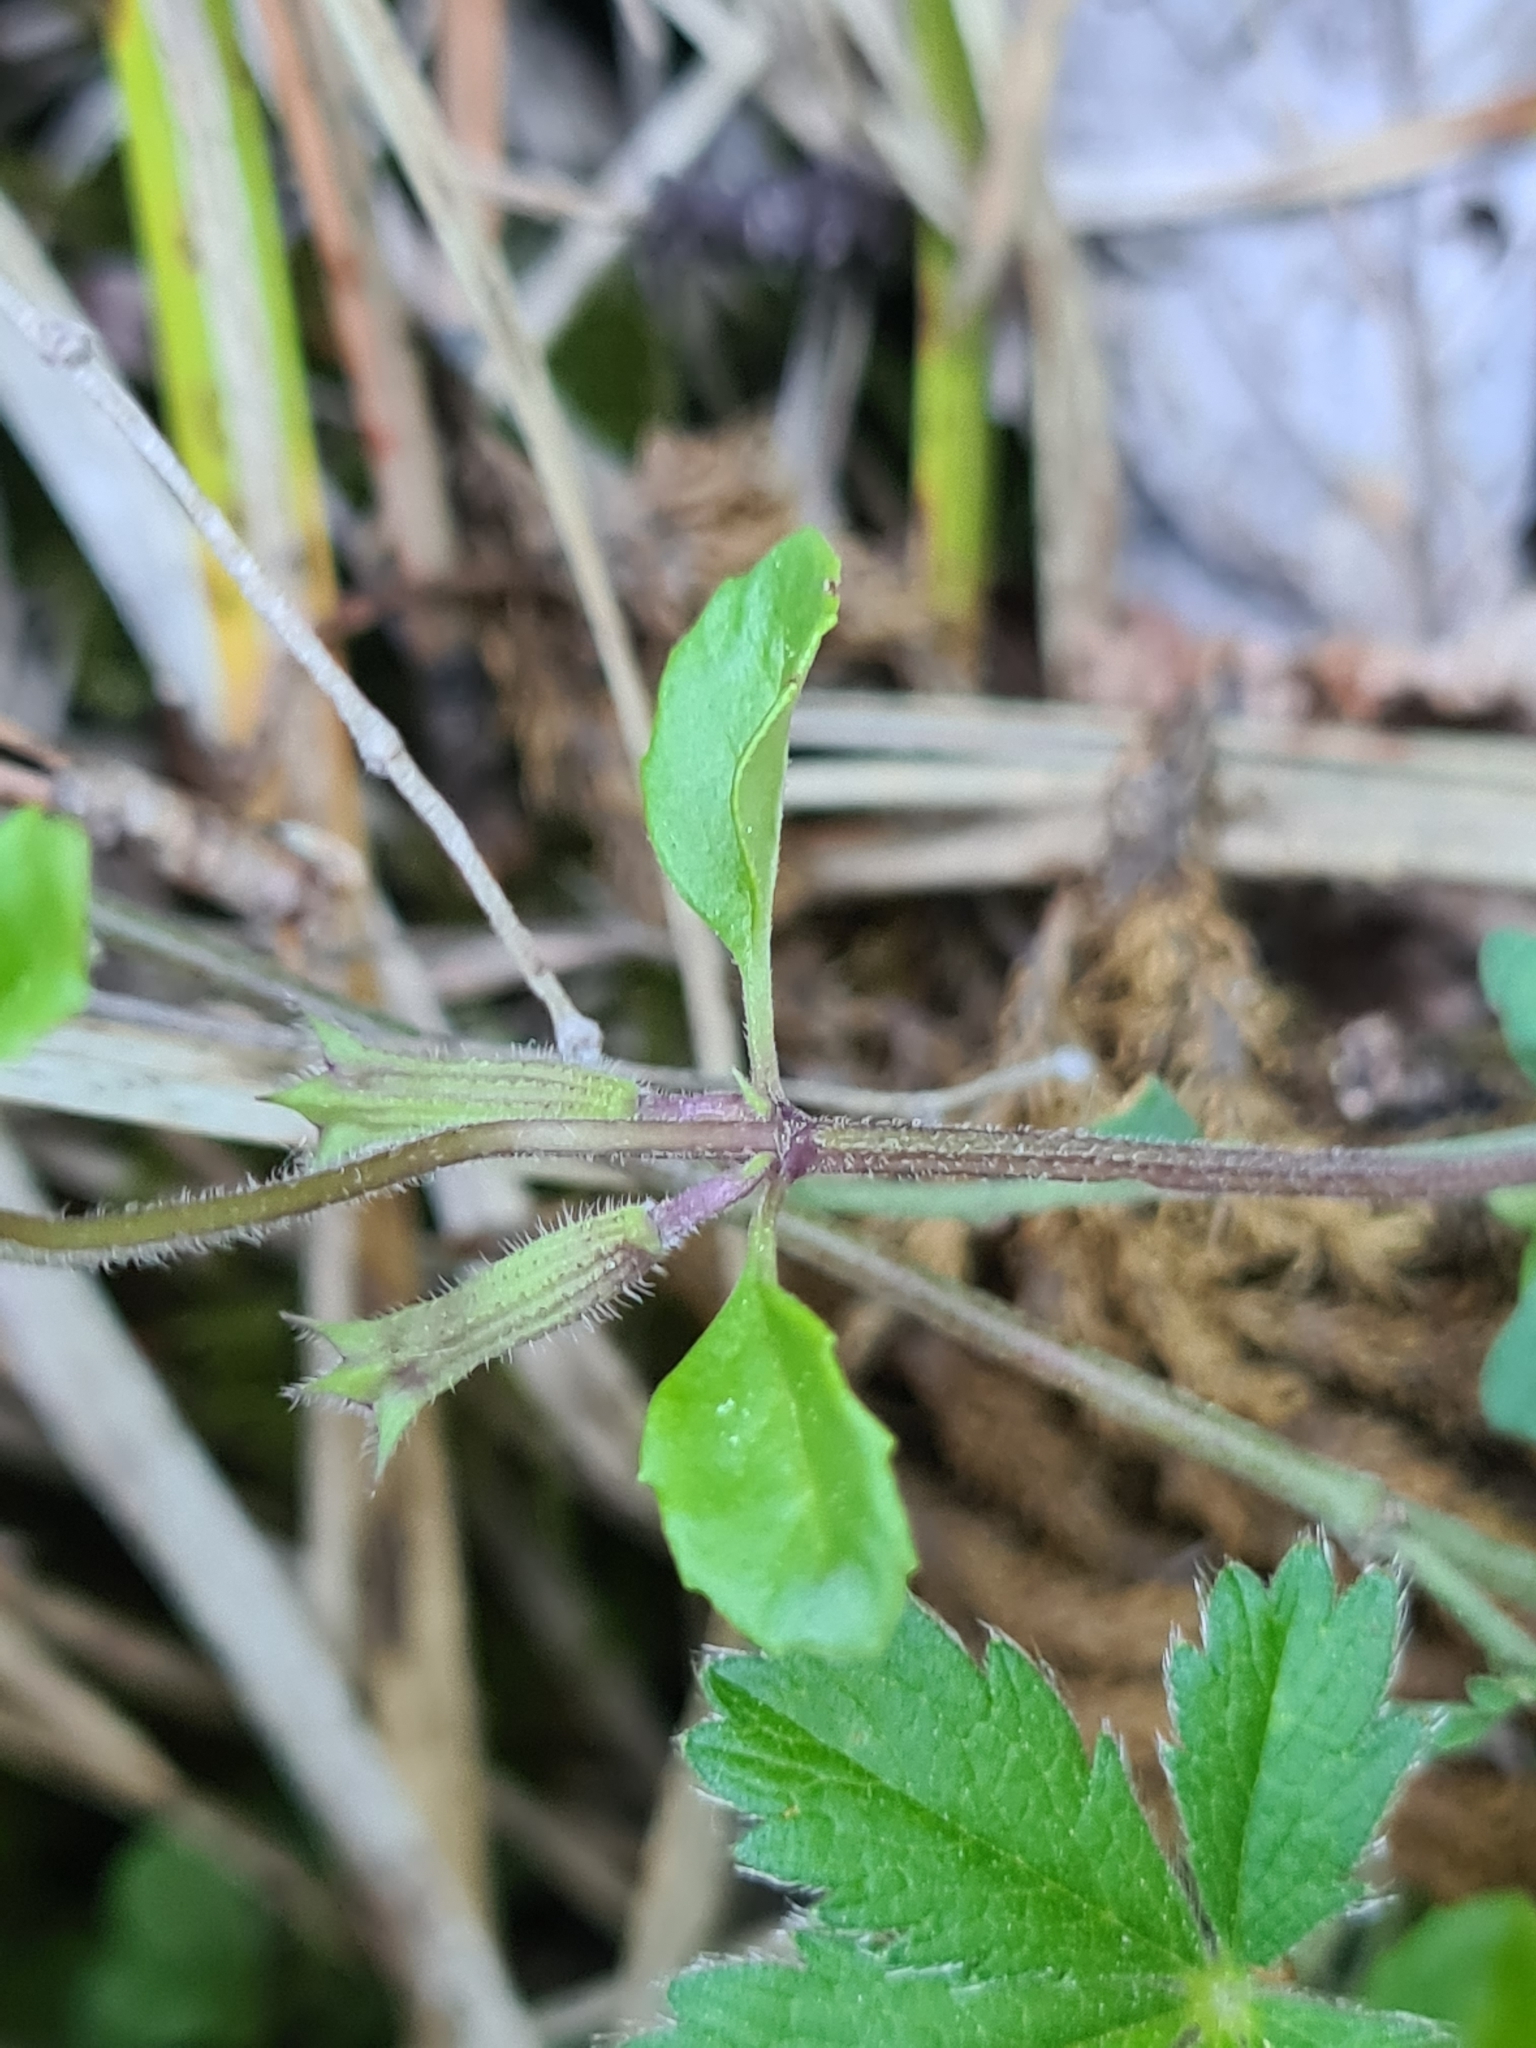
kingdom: Plantae
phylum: Tracheophyta
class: Magnoliopsida
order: Lamiales
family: Lamiaceae
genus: Clinopodium
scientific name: Clinopodium alpinum
